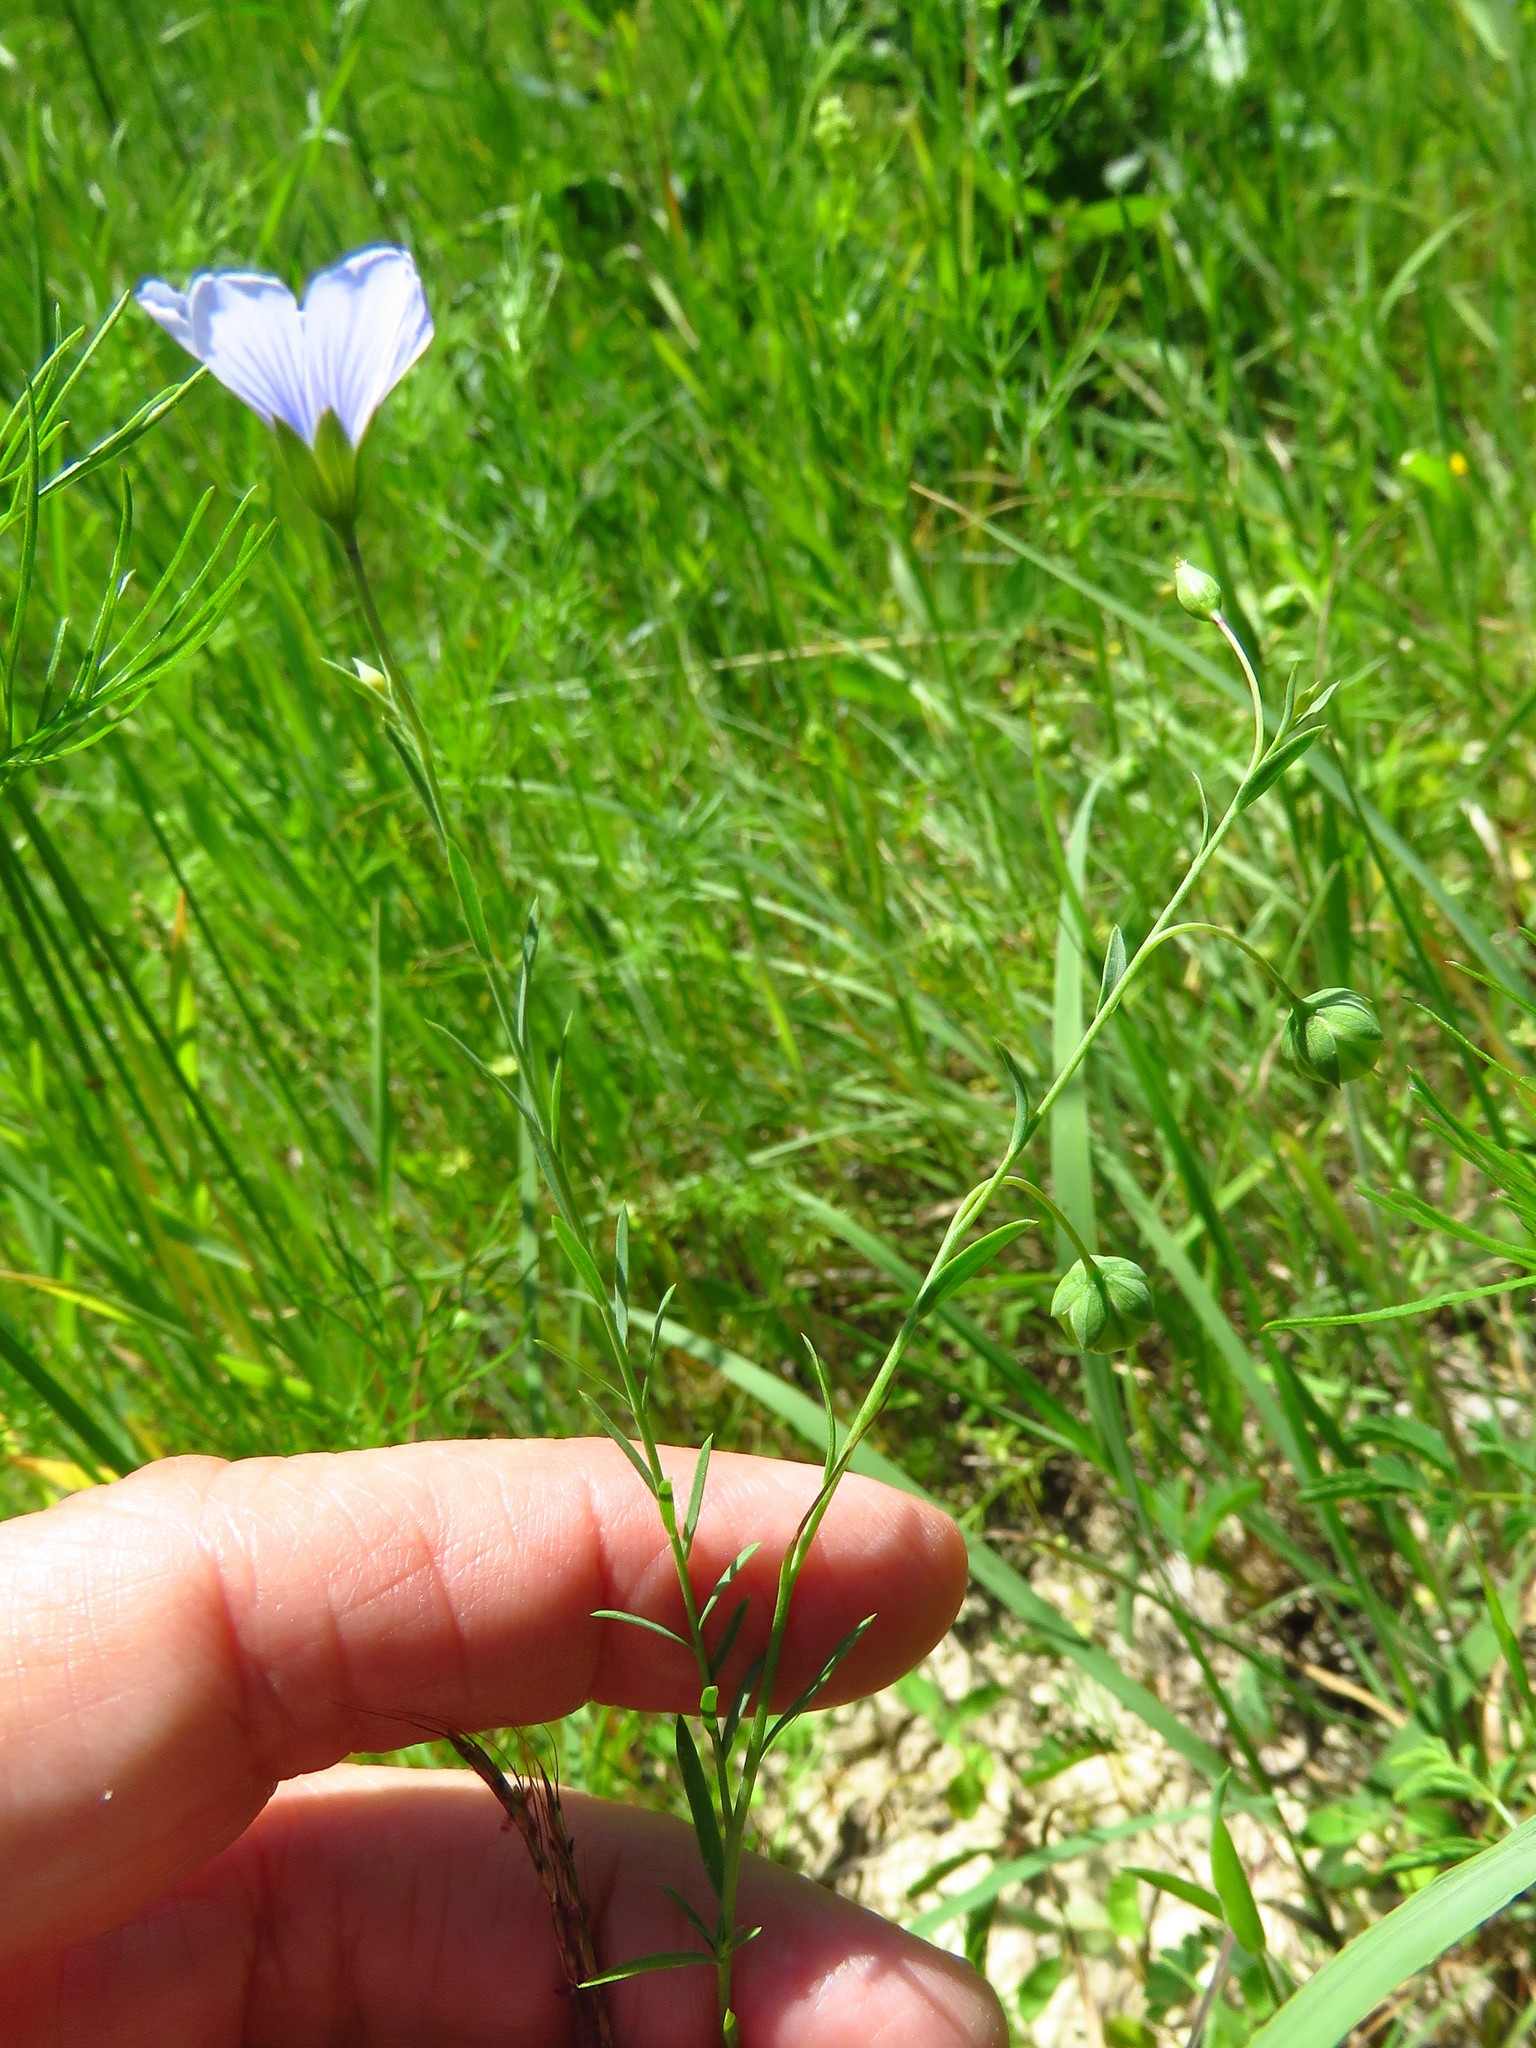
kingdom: Plantae
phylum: Tracheophyta
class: Magnoliopsida
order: Malpighiales
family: Linaceae
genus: Linum
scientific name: Linum pratense
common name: Norton's flax
